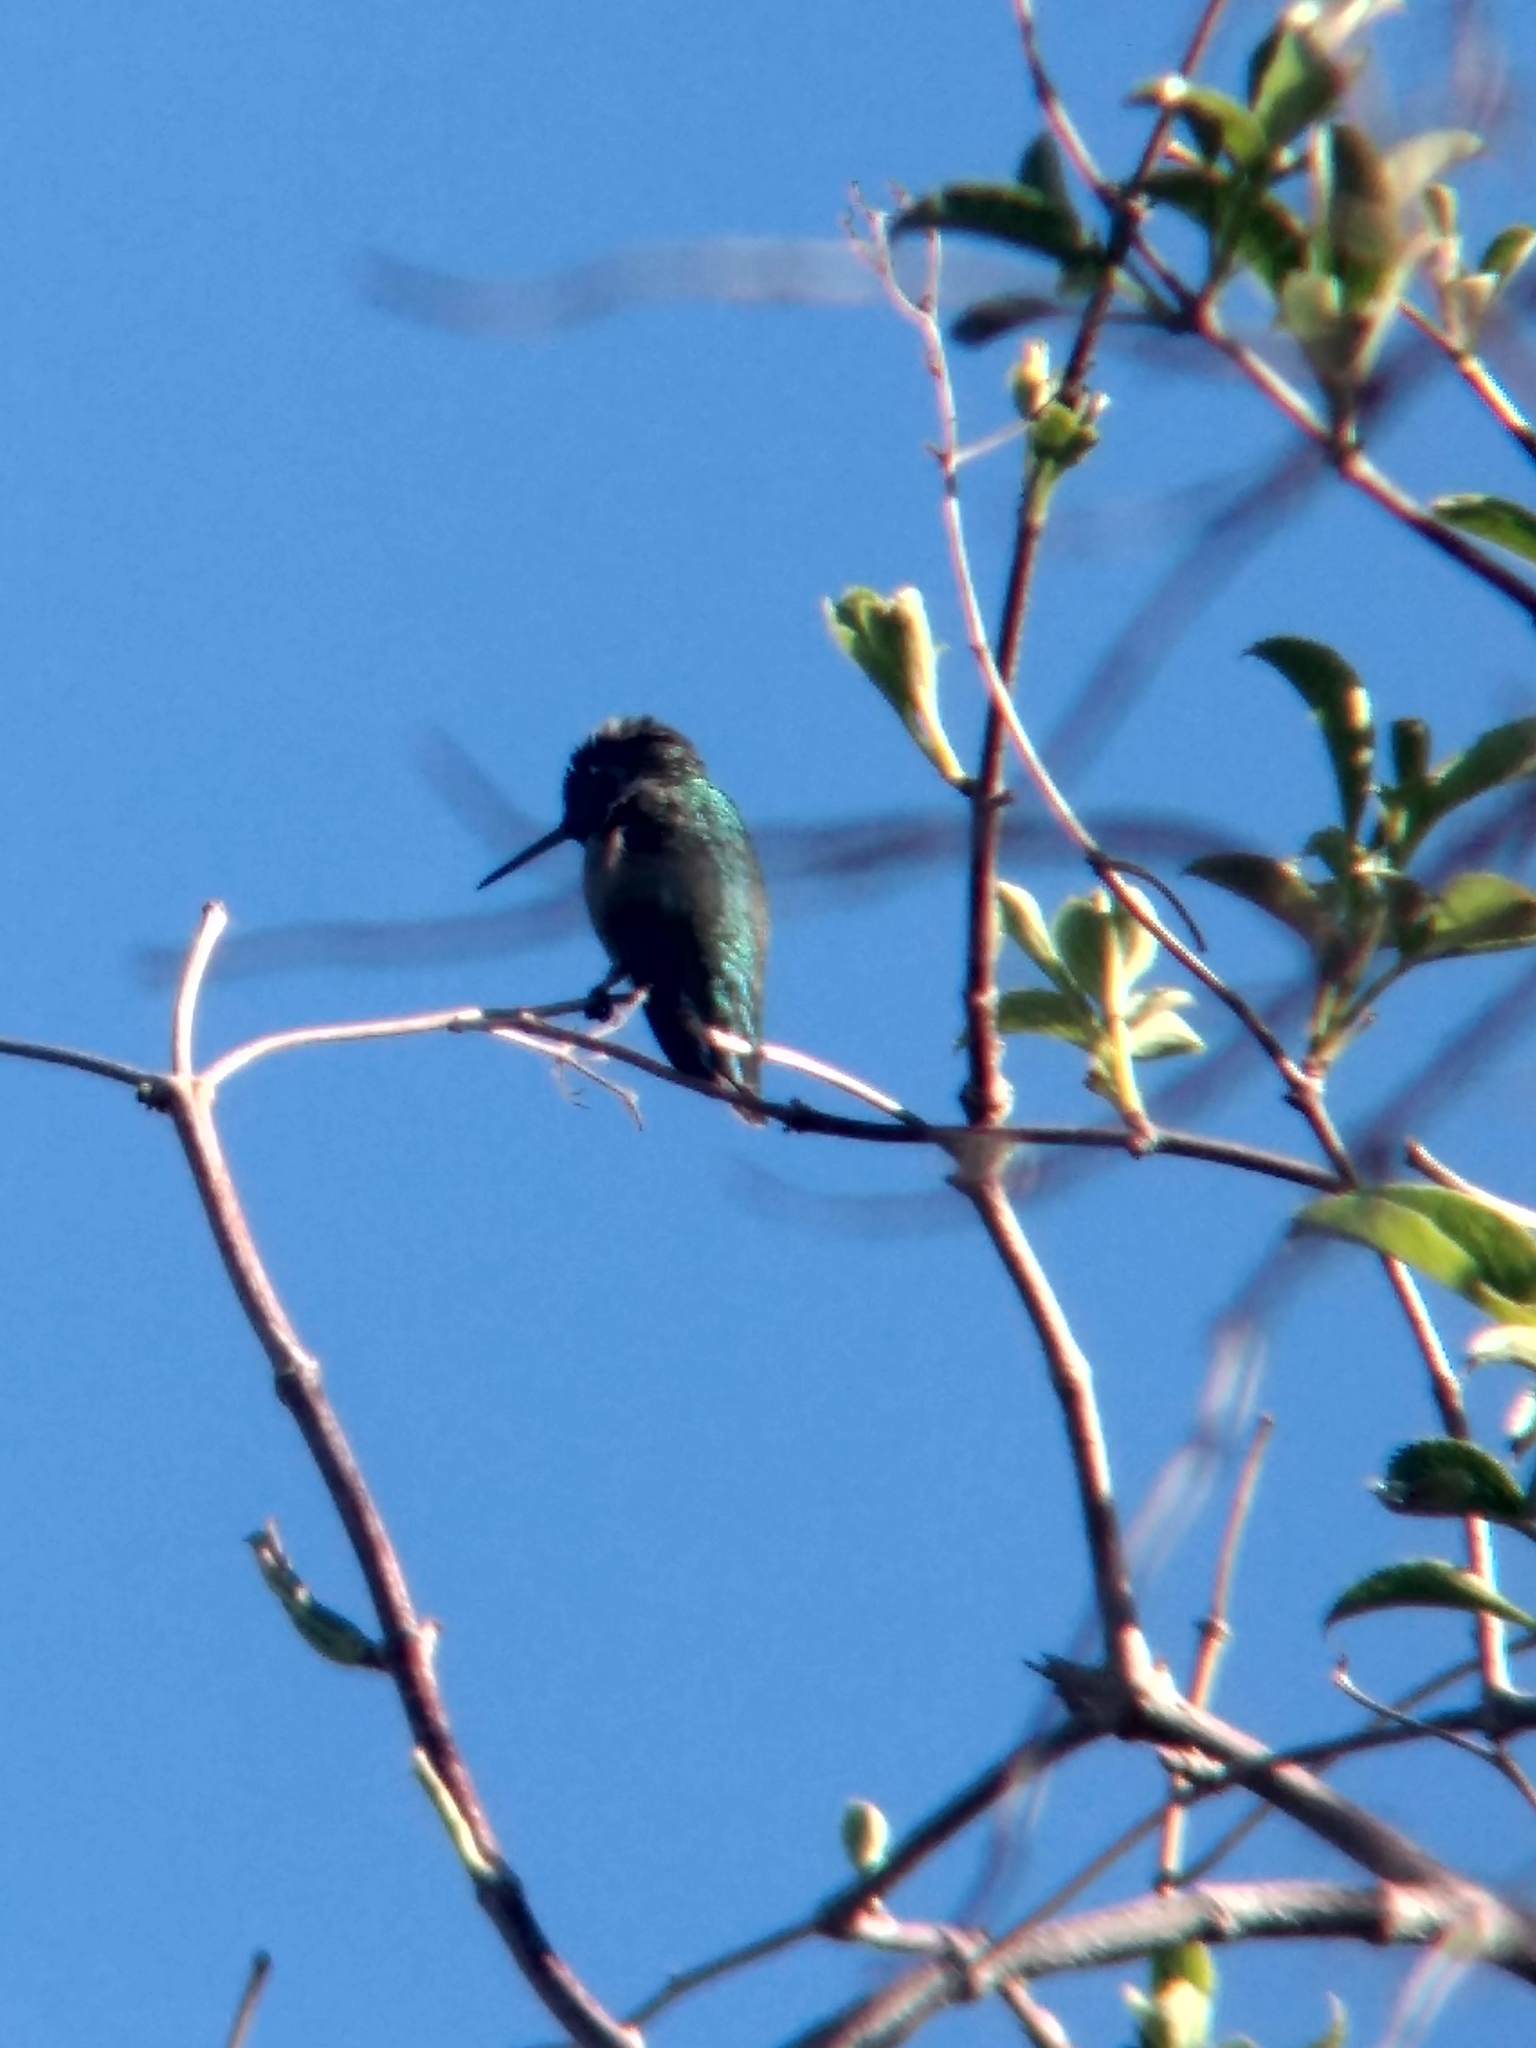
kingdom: Animalia
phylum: Chordata
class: Aves
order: Apodiformes
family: Trochilidae
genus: Calypte
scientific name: Calypte anna
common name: Anna's hummingbird
